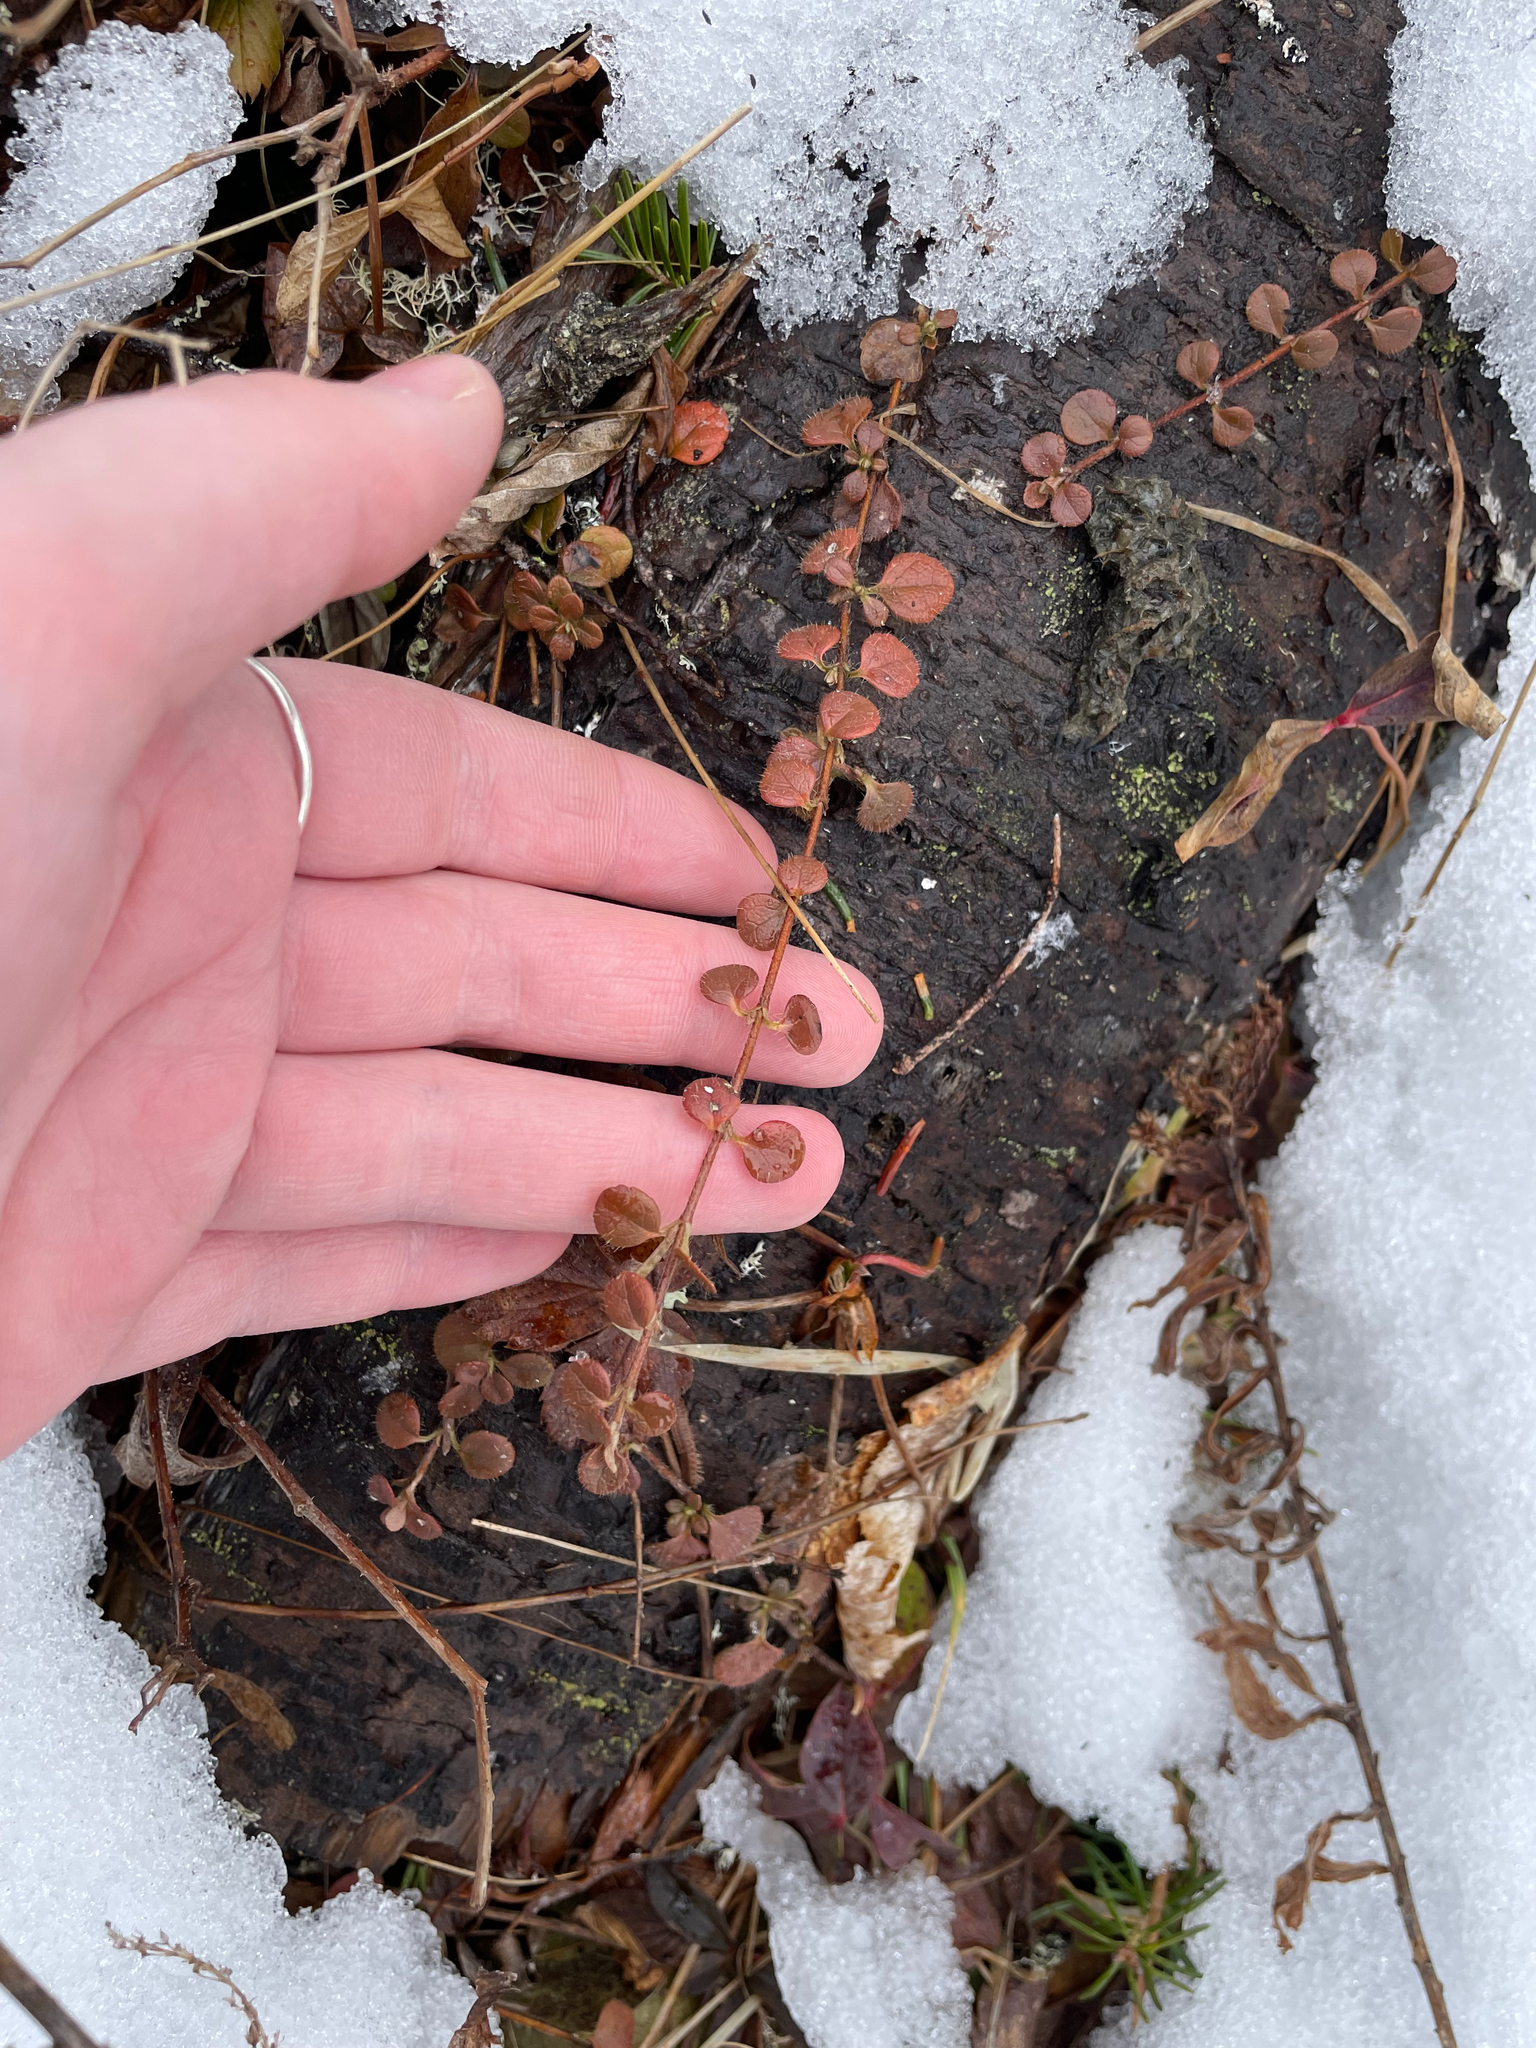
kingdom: Plantae
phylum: Tracheophyta
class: Magnoliopsida
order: Dipsacales
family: Caprifoliaceae
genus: Linnaea
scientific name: Linnaea borealis
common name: Twinflower
